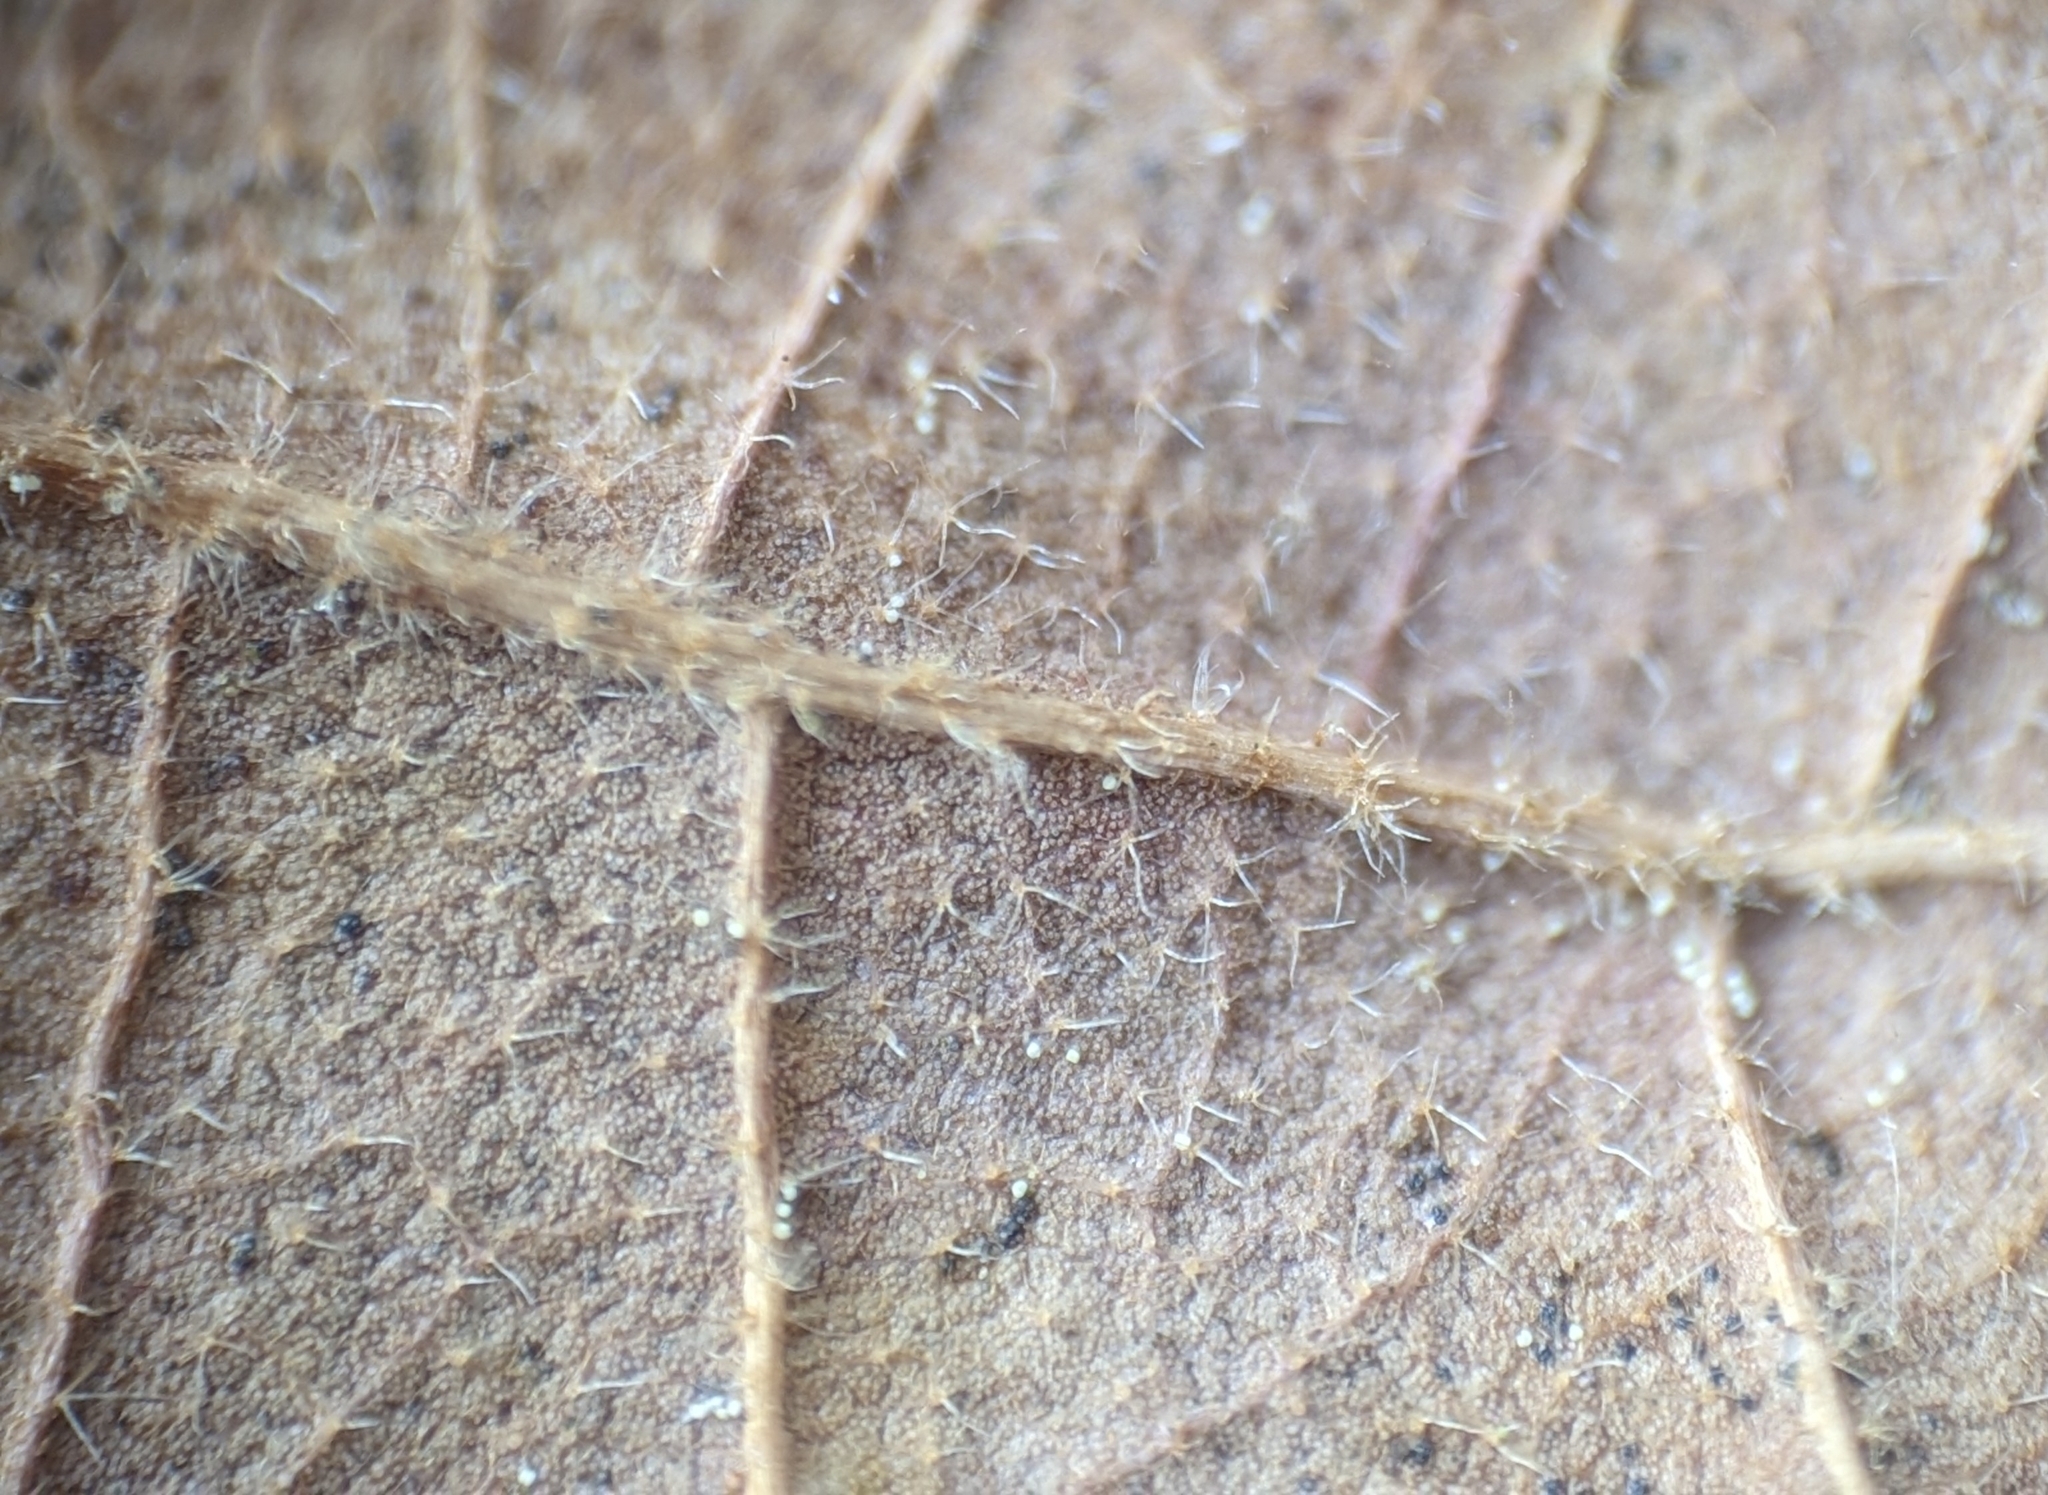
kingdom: Plantae
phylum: Tracheophyta
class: Magnoliopsida
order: Fagales
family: Fagaceae
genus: Quercus
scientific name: Quercus stellata
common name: Post oak
